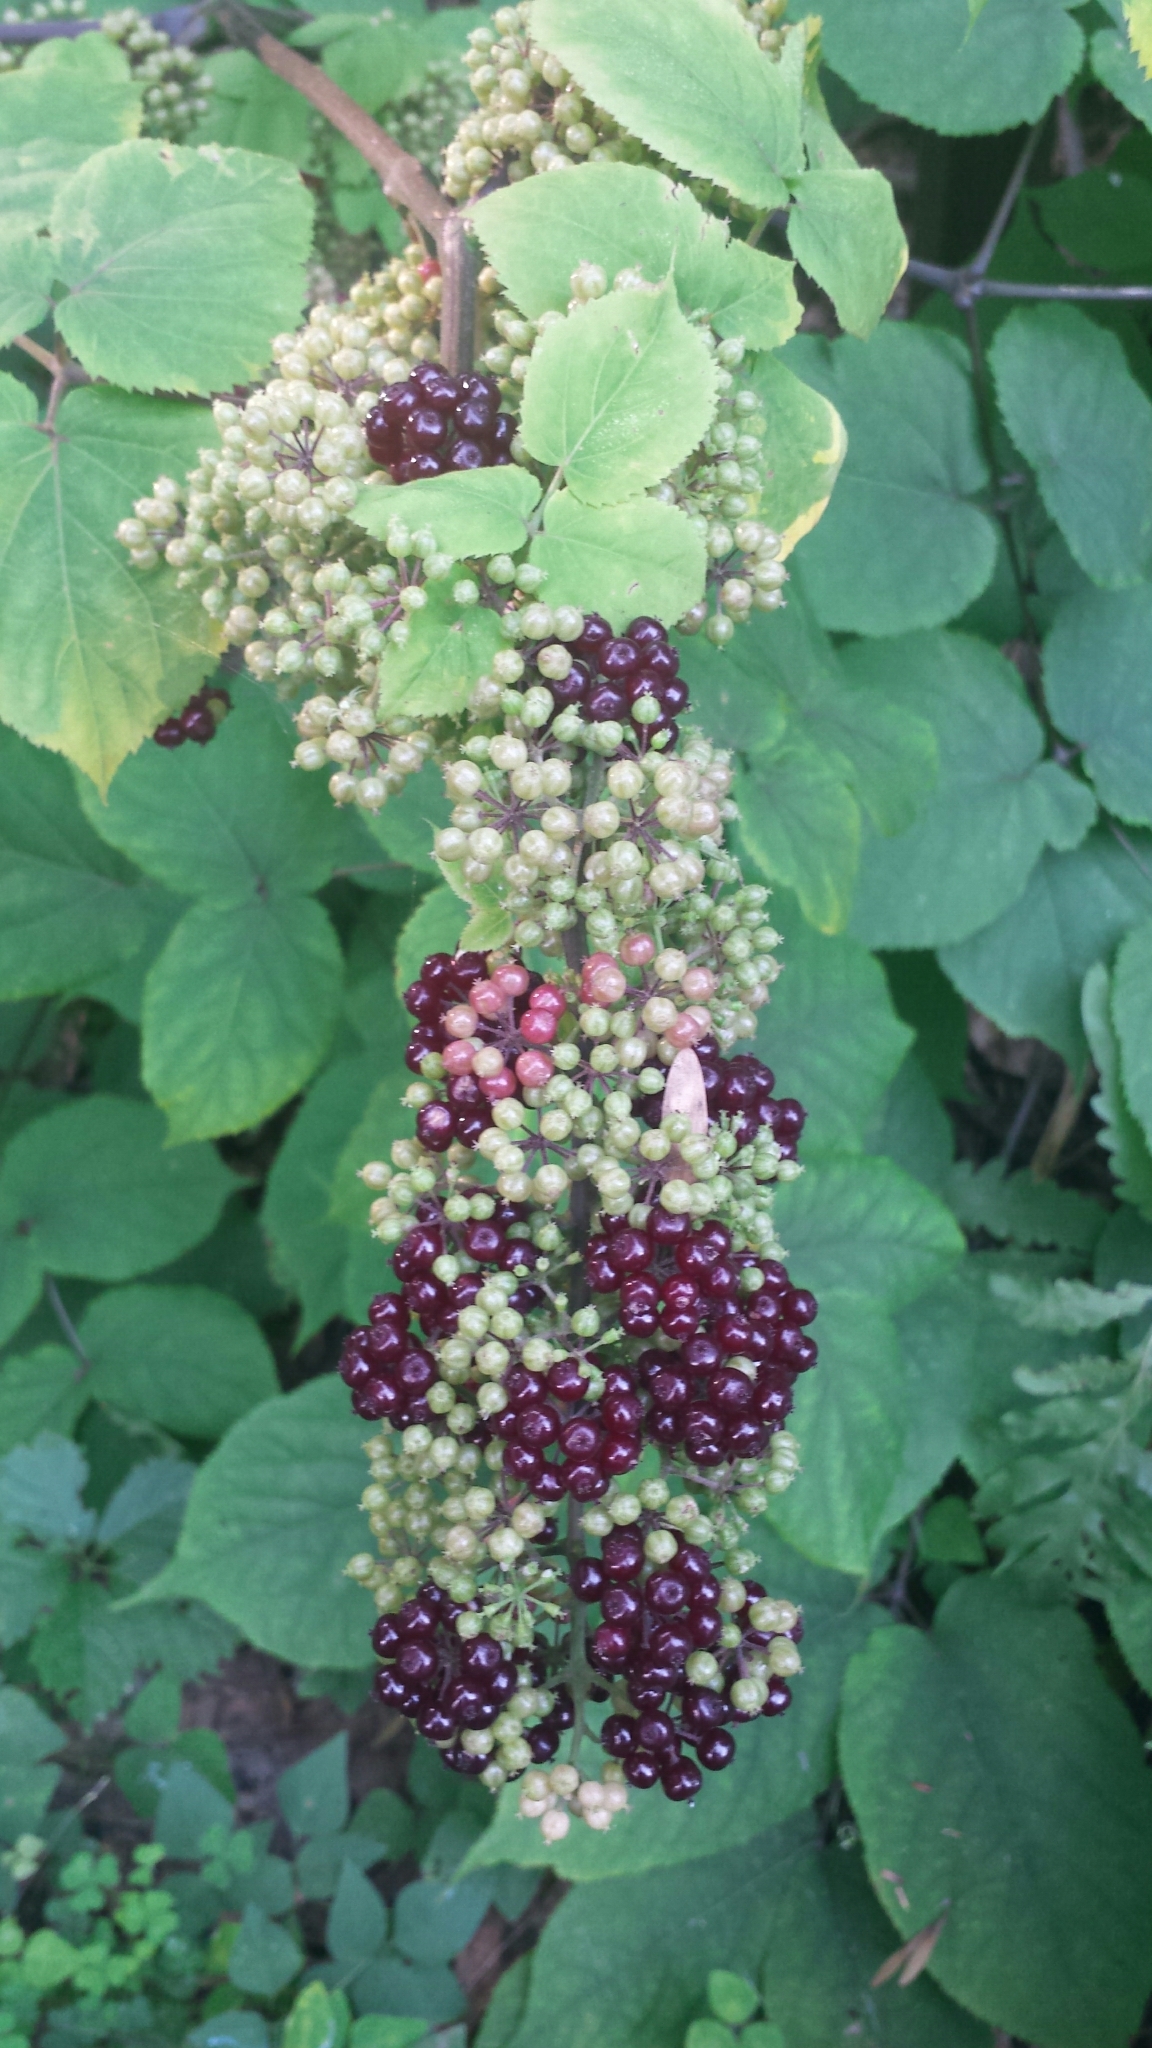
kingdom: Plantae
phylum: Tracheophyta
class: Magnoliopsida
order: Apiales
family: Araliaceae
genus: Aralia
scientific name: Aralia racemosa
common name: American-spikenard
